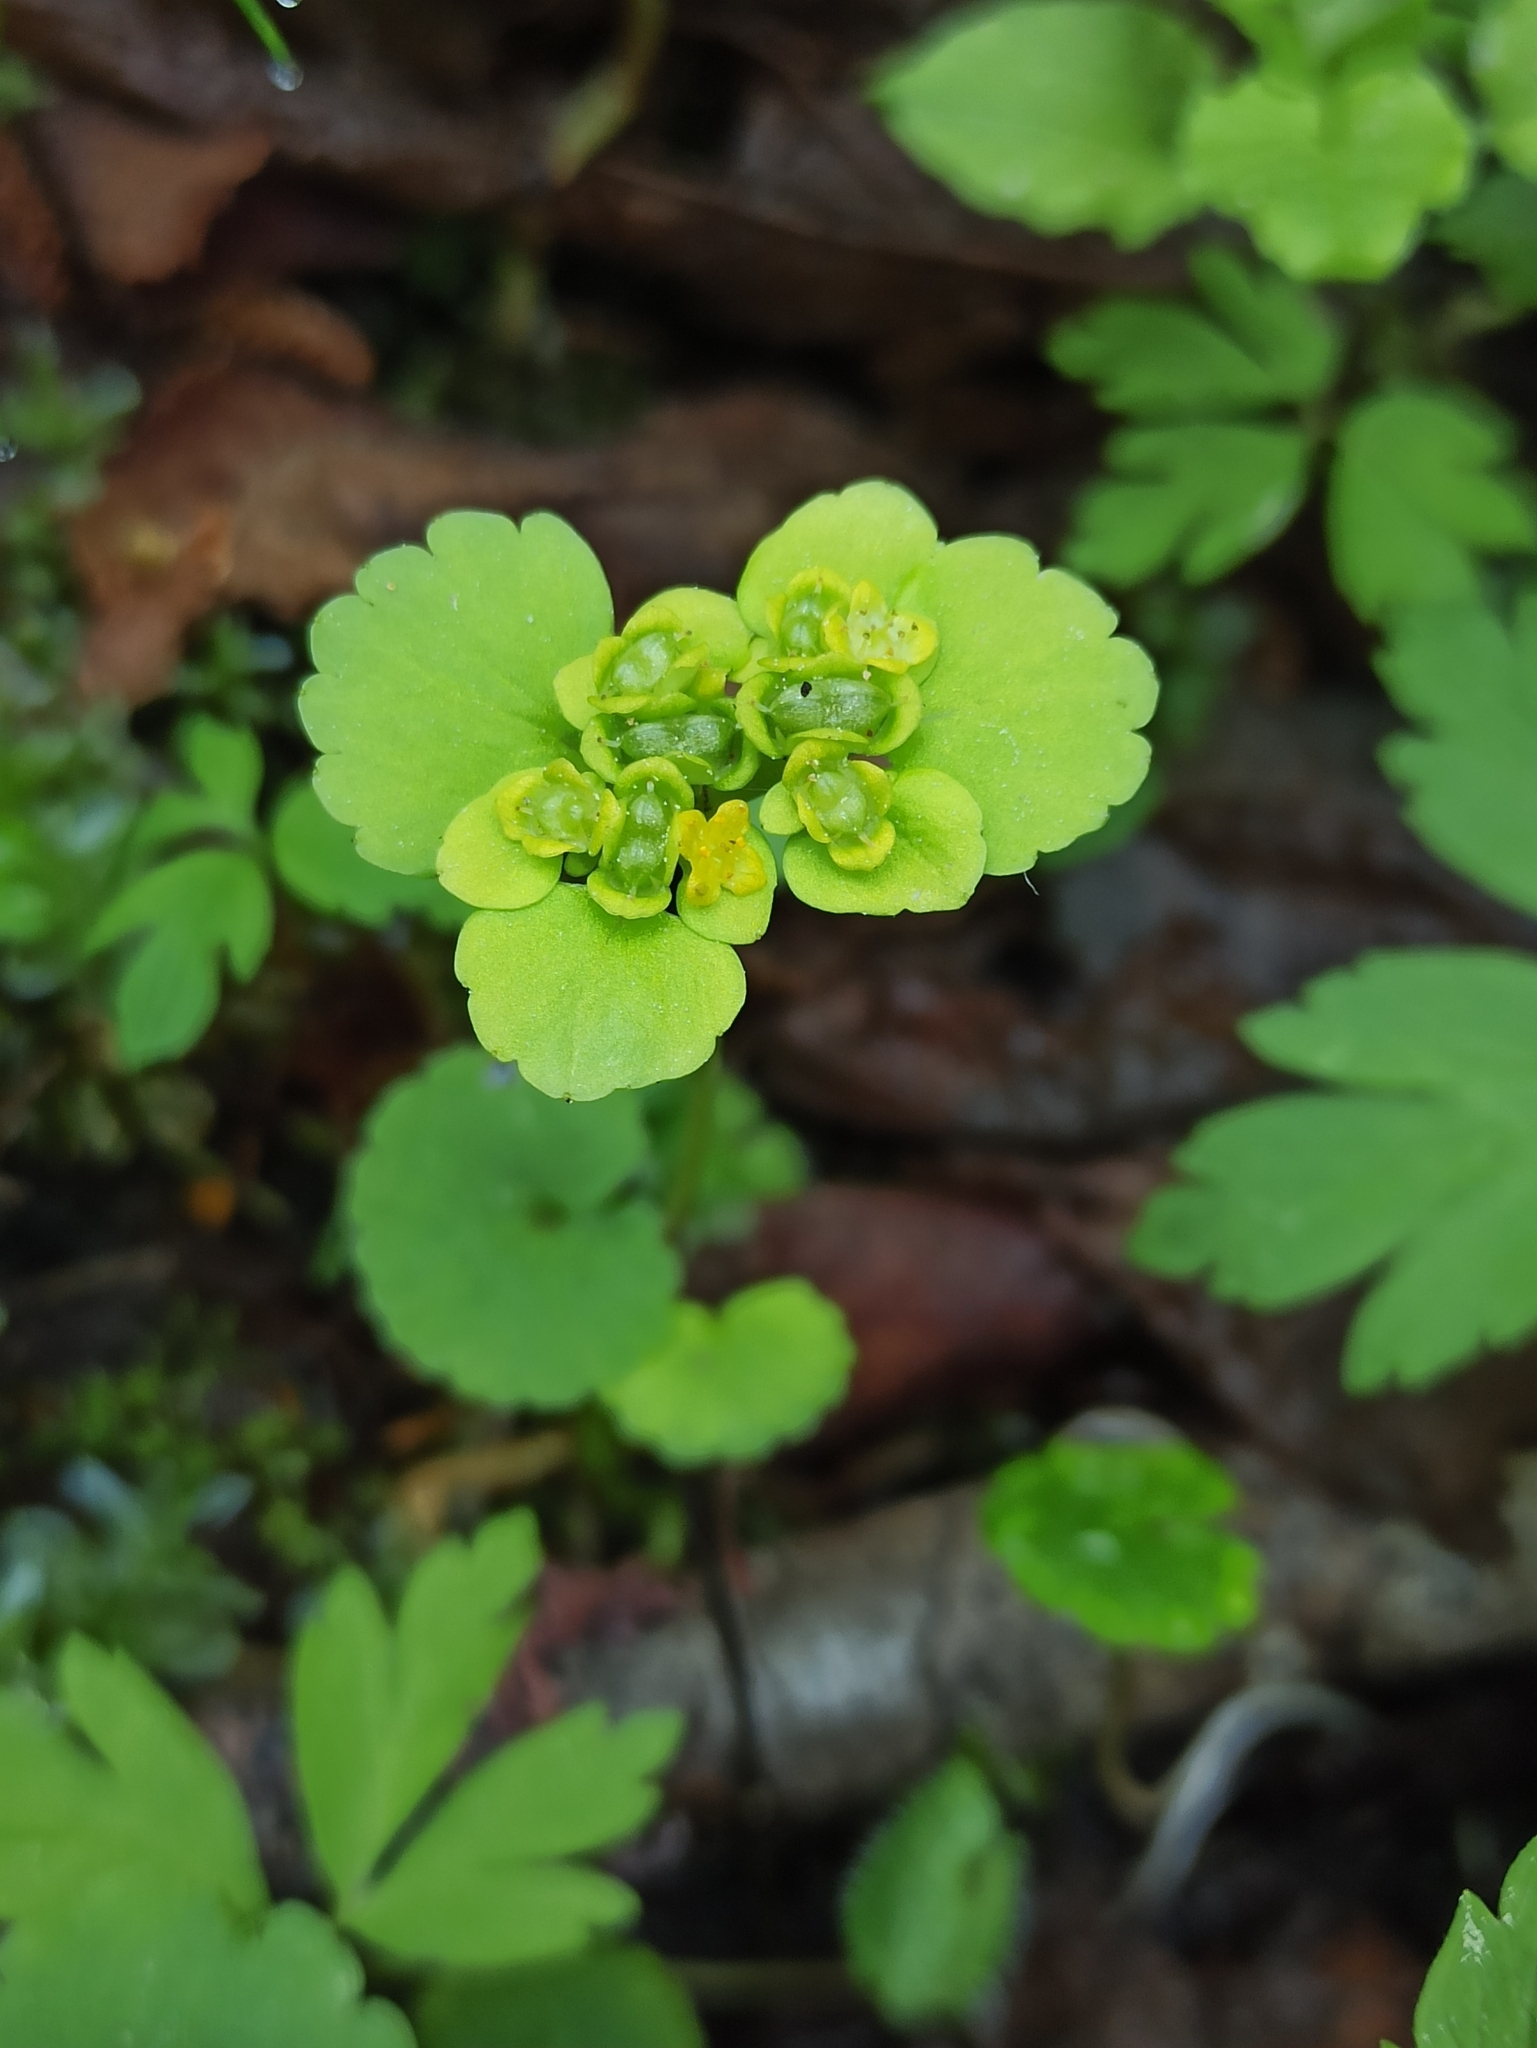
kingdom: Plantae
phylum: Tracheophyta
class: Magnoliopsida
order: Saxifragales
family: Saxifragaceae
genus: Chrysosplenium
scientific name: Chrysosplenium alternifolium
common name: Alternate-leaved golden-saxifrage
